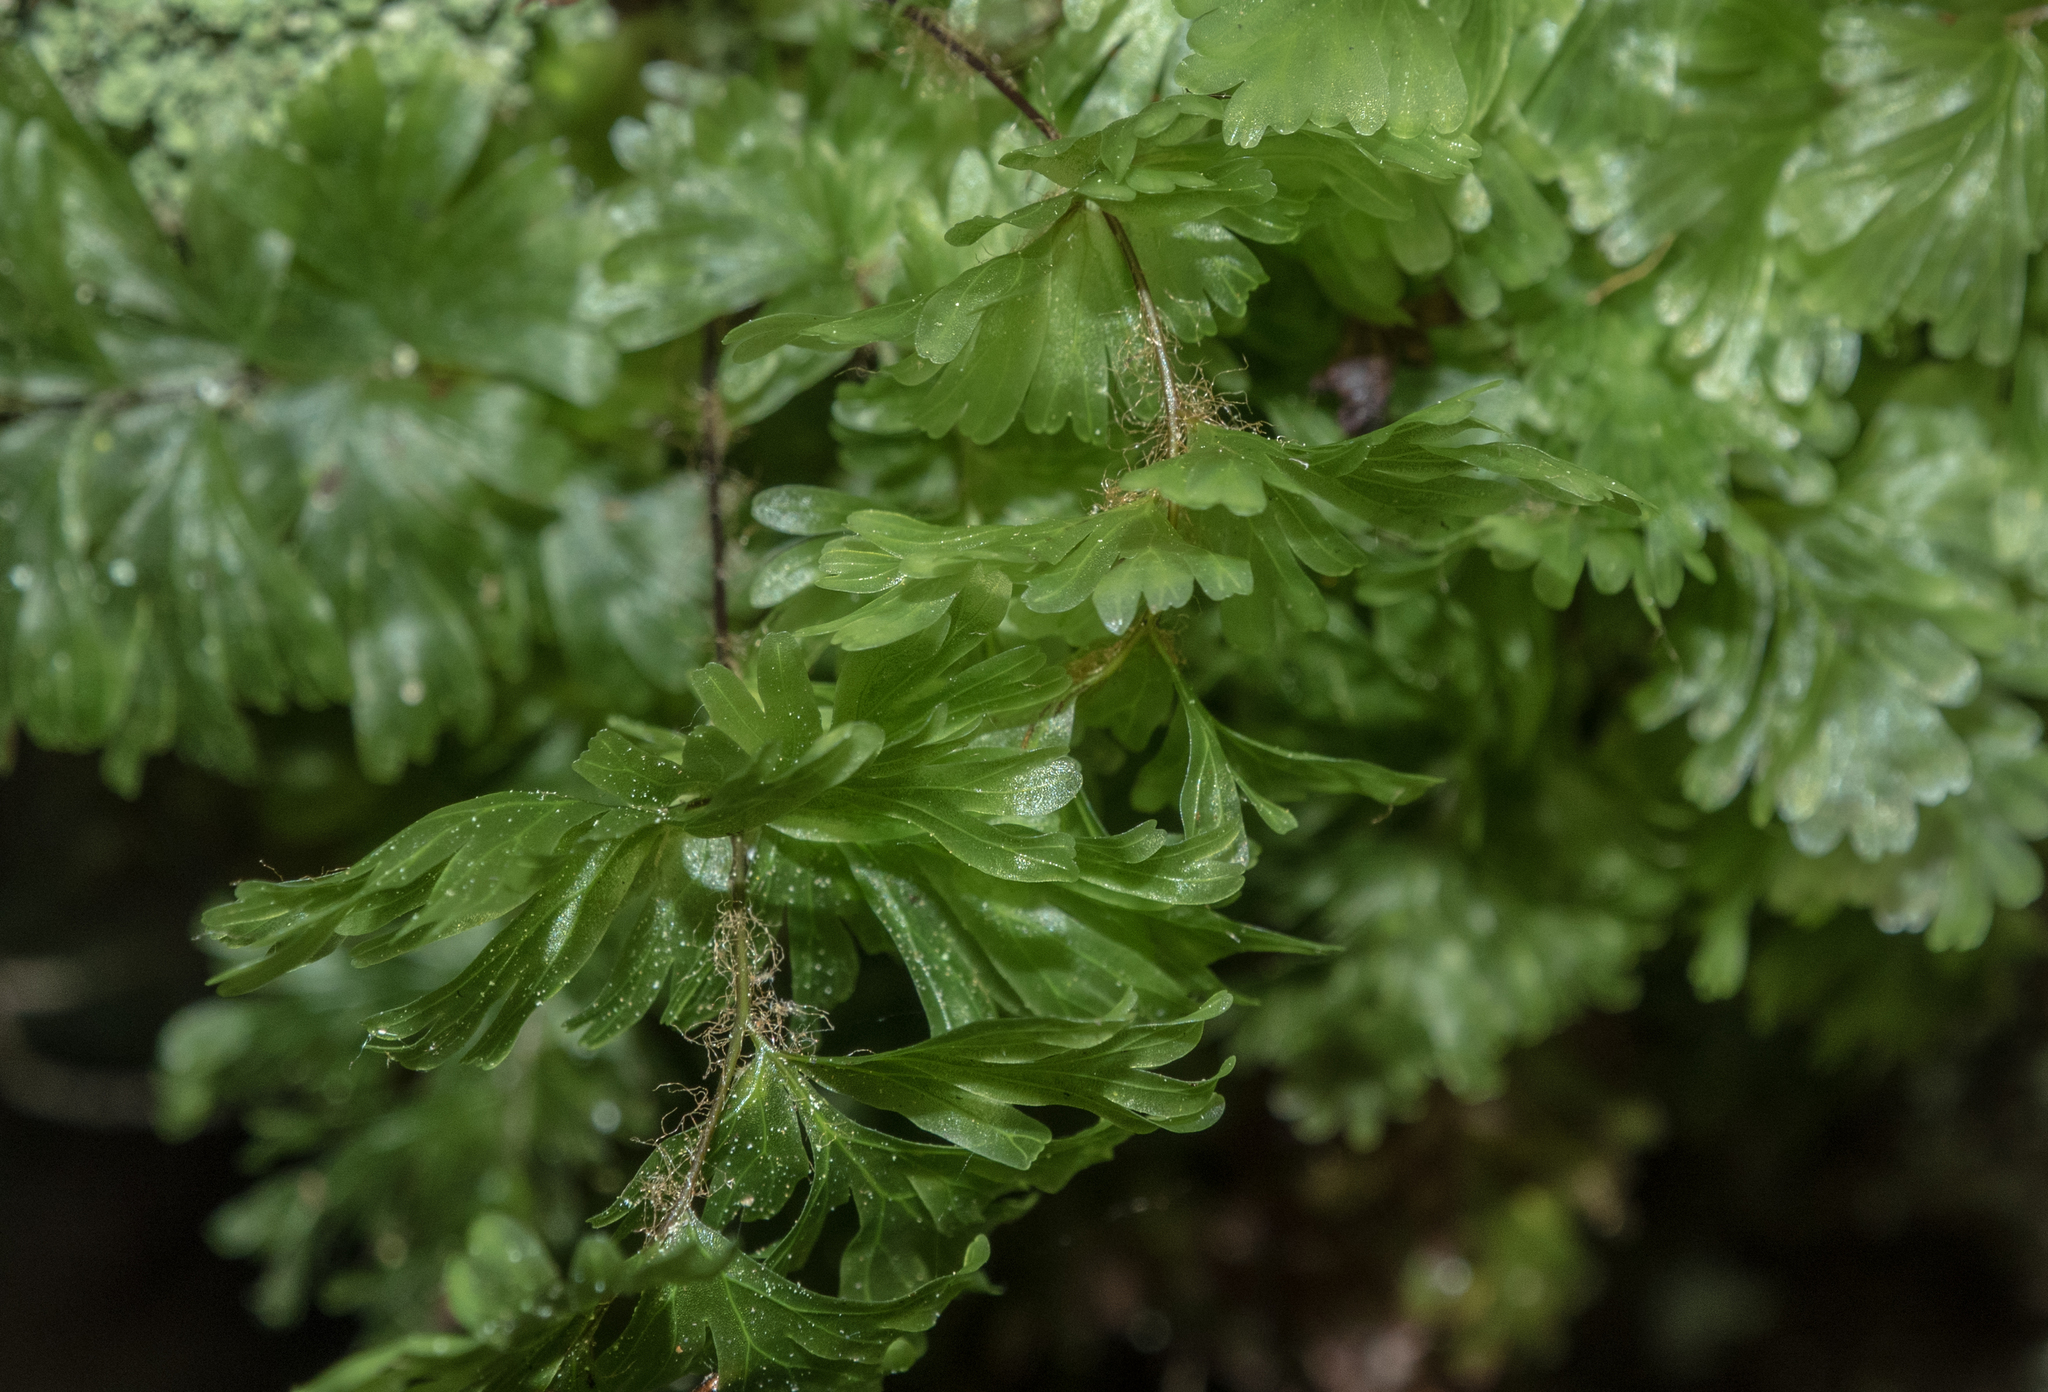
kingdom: Plantae
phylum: Tracheophyta
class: Polypodiopsida
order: Hymenophyllales
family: Hymenophyllaceae
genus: Hymenophyllum
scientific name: Hymenophyllum flabellatum
